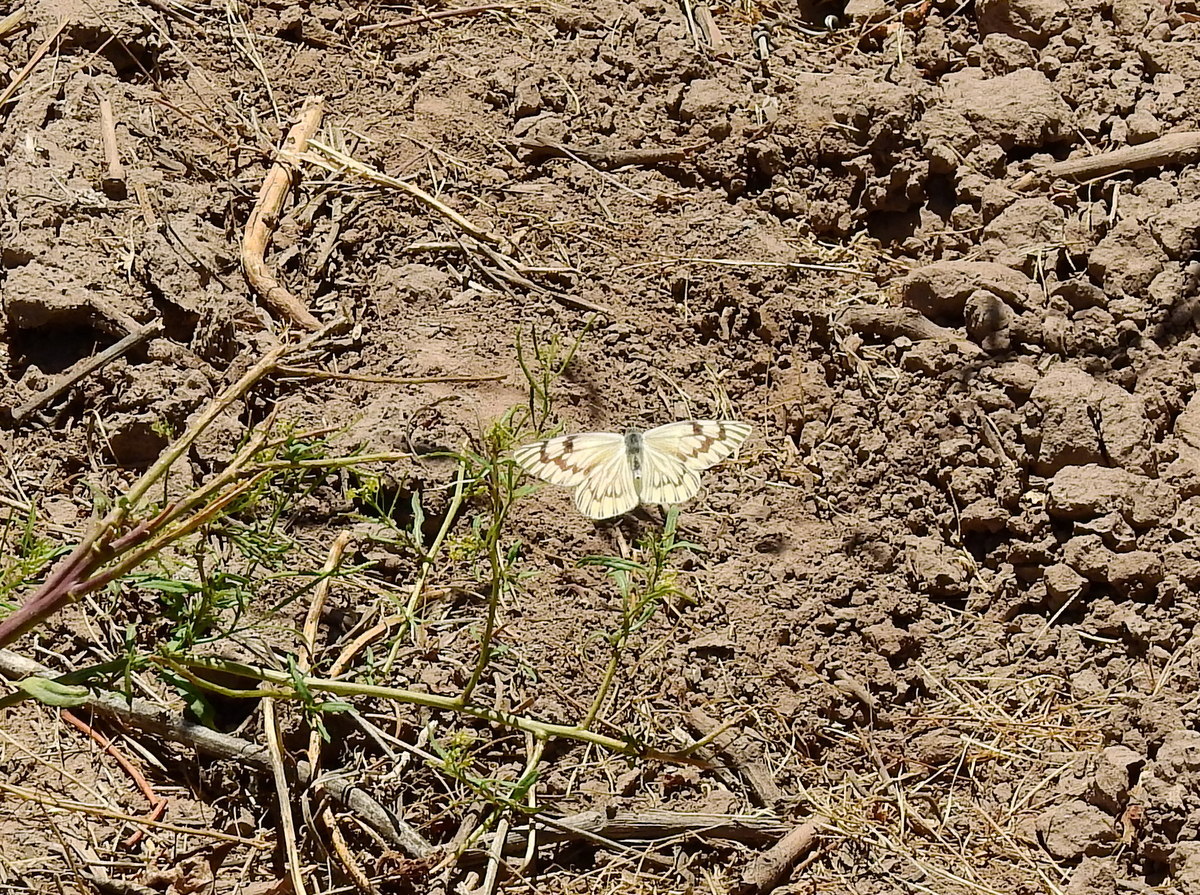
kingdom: Animalia
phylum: Arthropoda
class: Insecta
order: Lepidoptera
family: Pieridae
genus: Tatochila
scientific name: Tatochila mercedis
